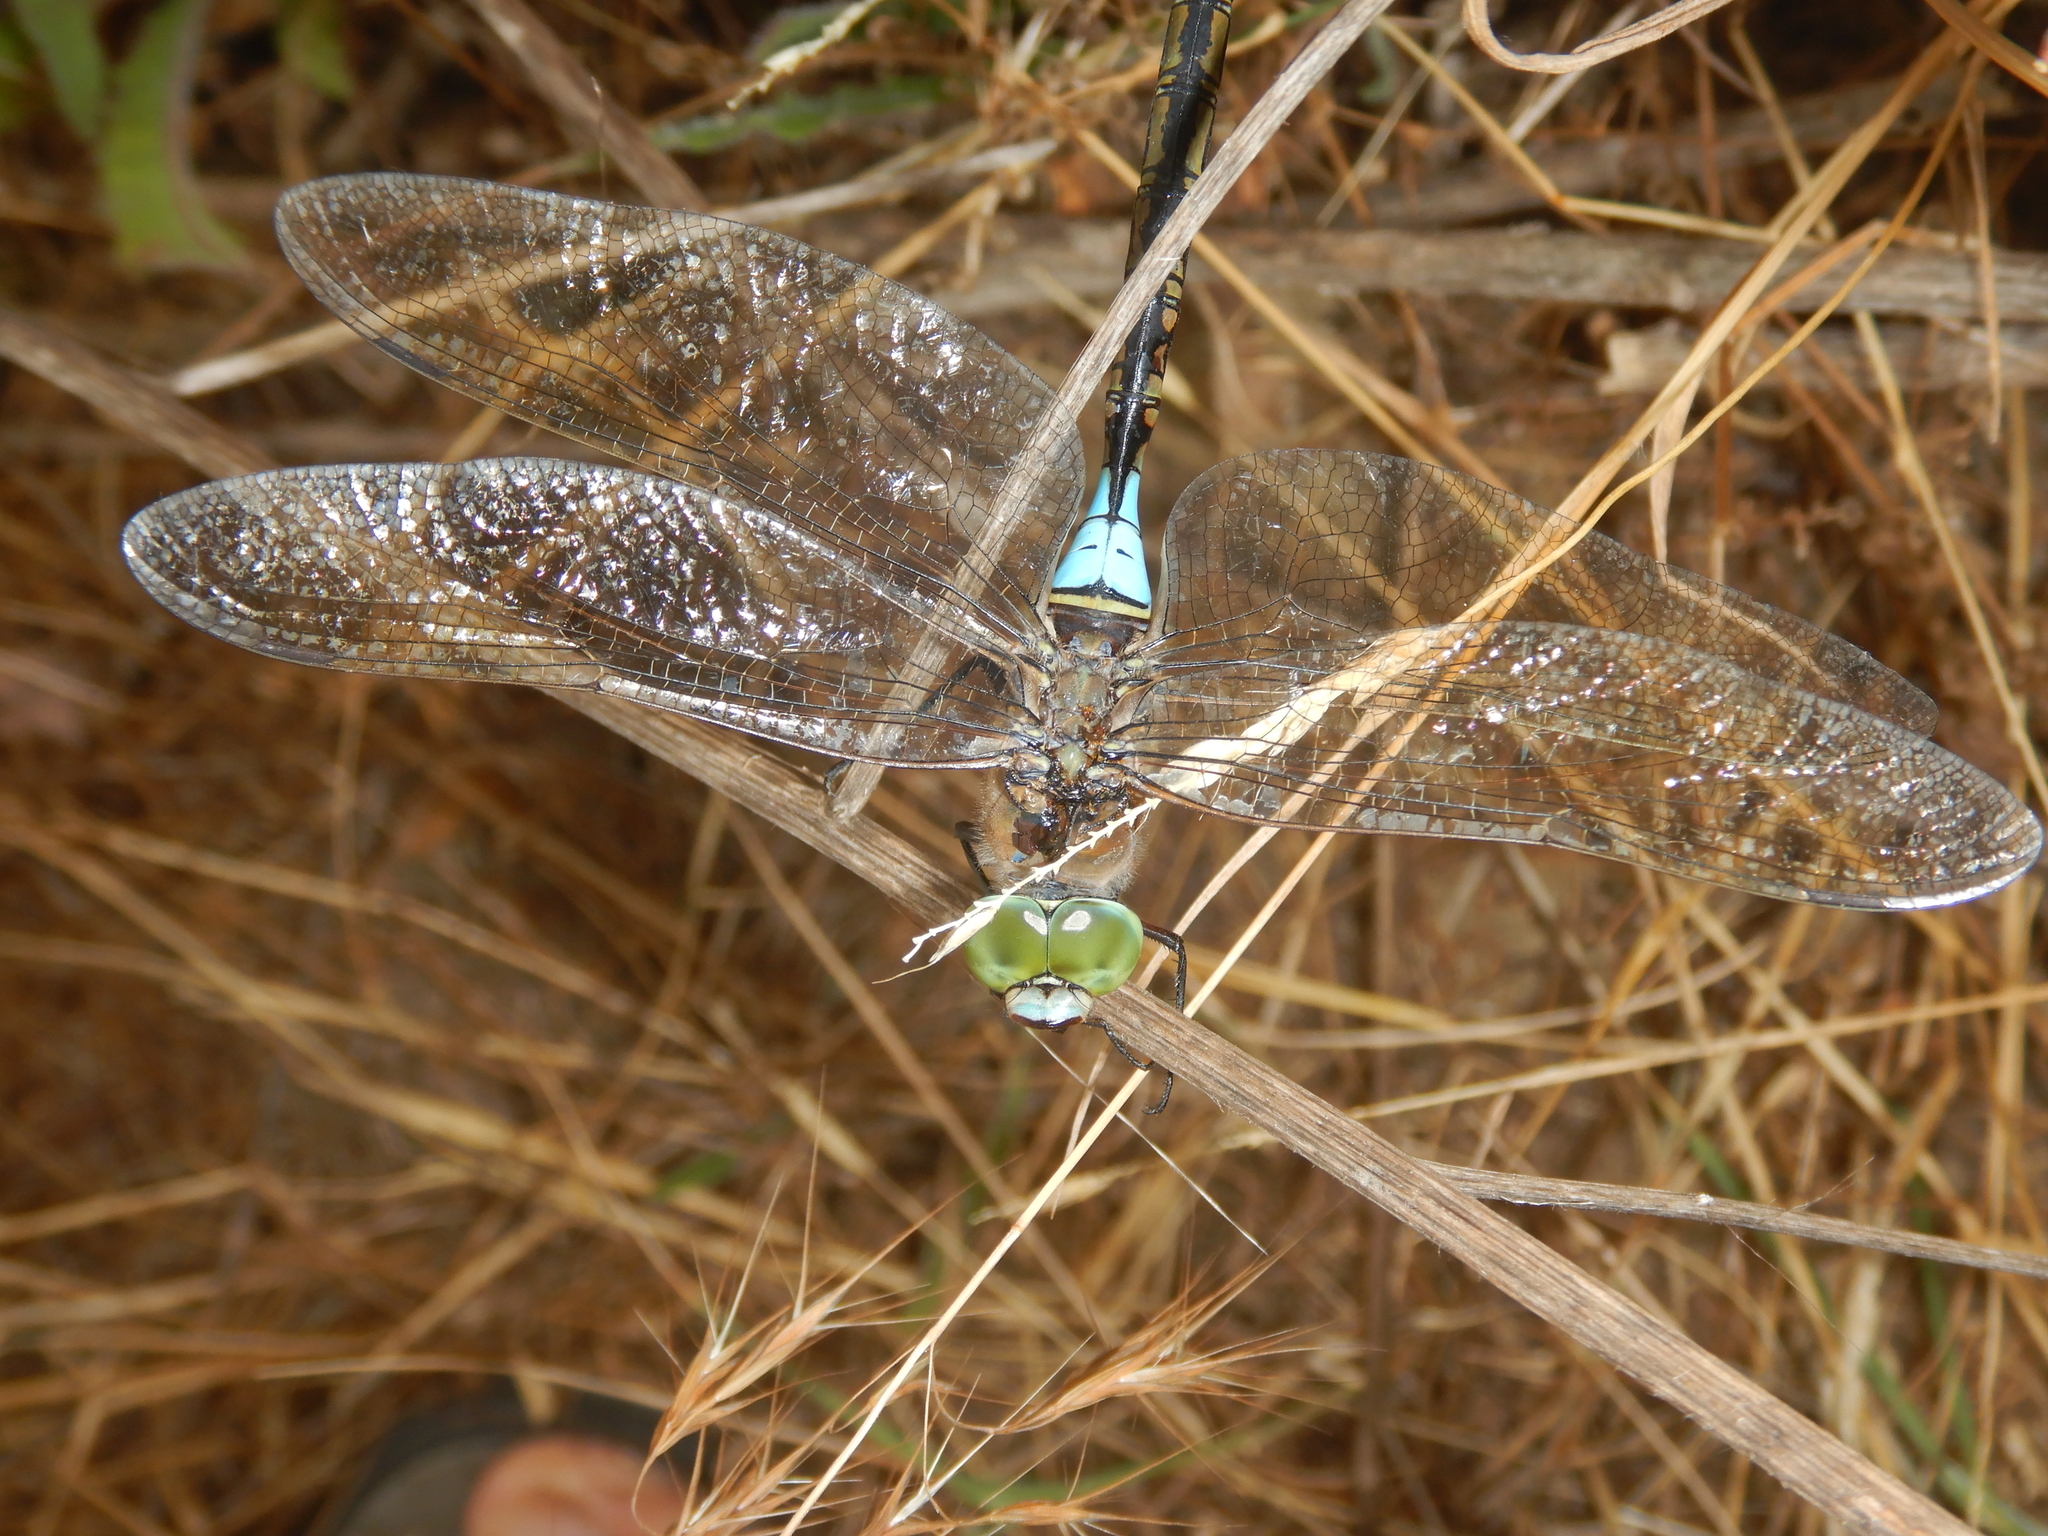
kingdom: Animalia
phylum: Arthropoda
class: Insecta
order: Odonata
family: Aeshnidae
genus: Anax
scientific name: Anax parthenope
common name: Lesser emperor
